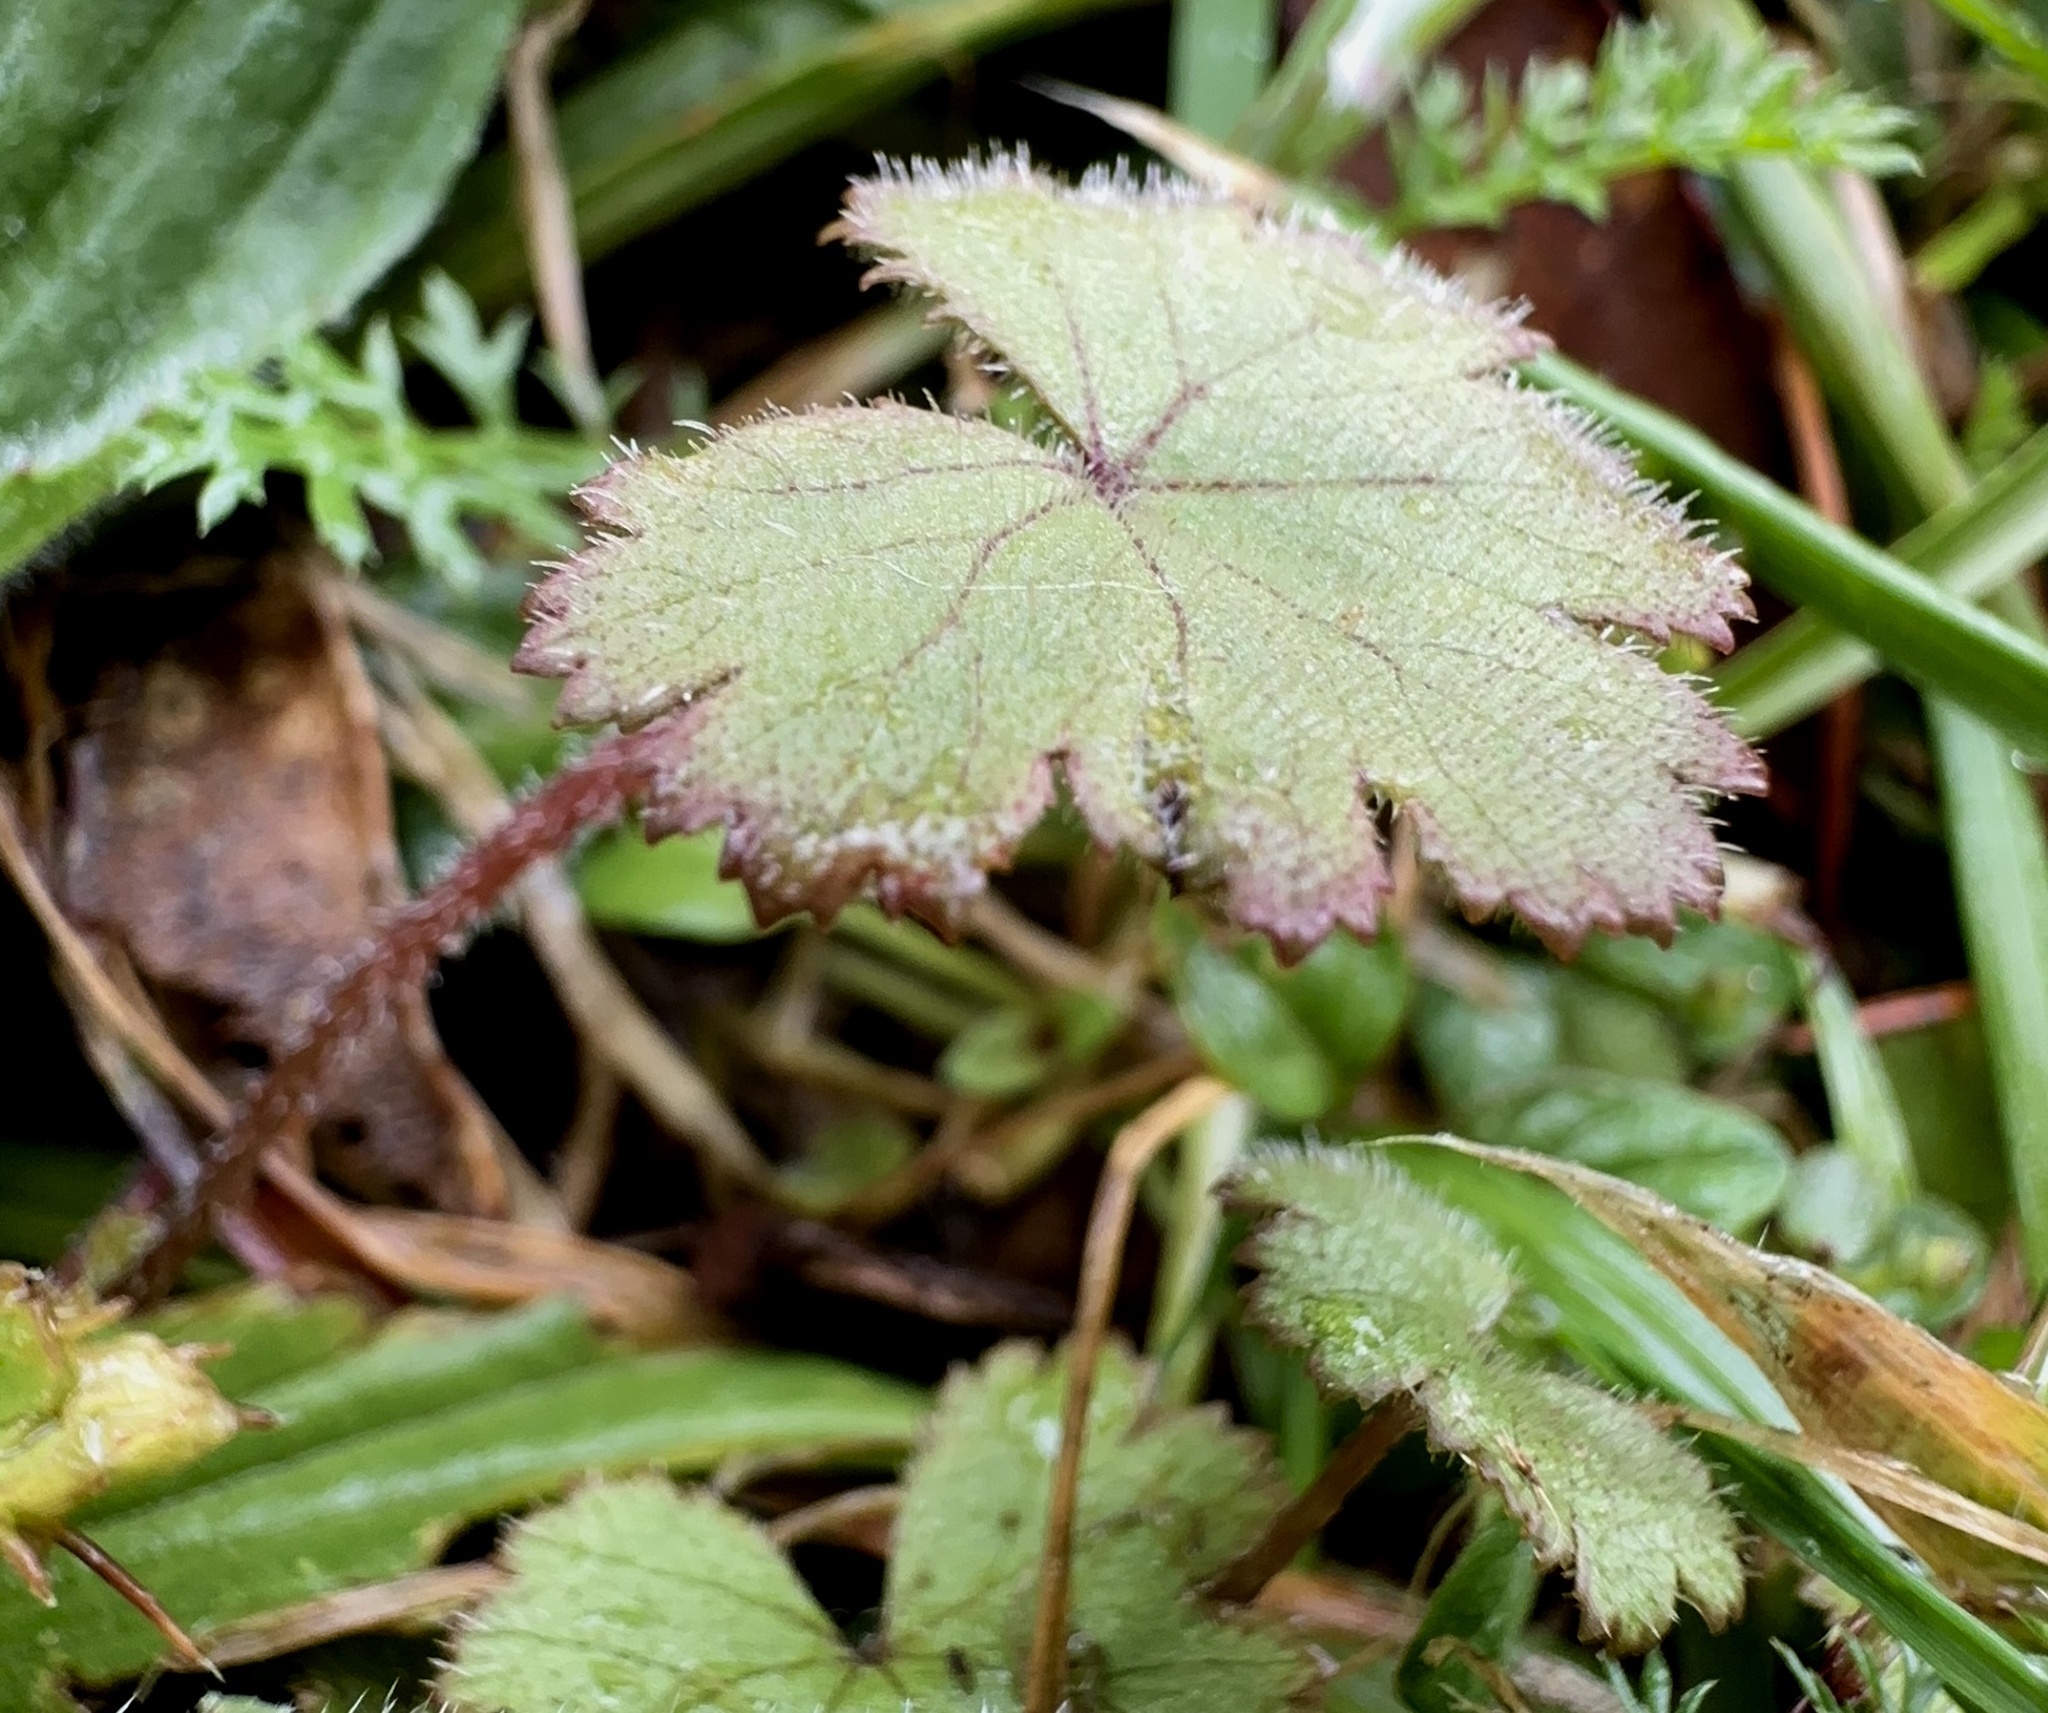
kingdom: Plantae
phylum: Tracheophyta
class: Magnoliopsida
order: Apiales
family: Araliaceae
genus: Hydrocotyle
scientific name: Hydrocotyle moschata
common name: Hairy pennywort
